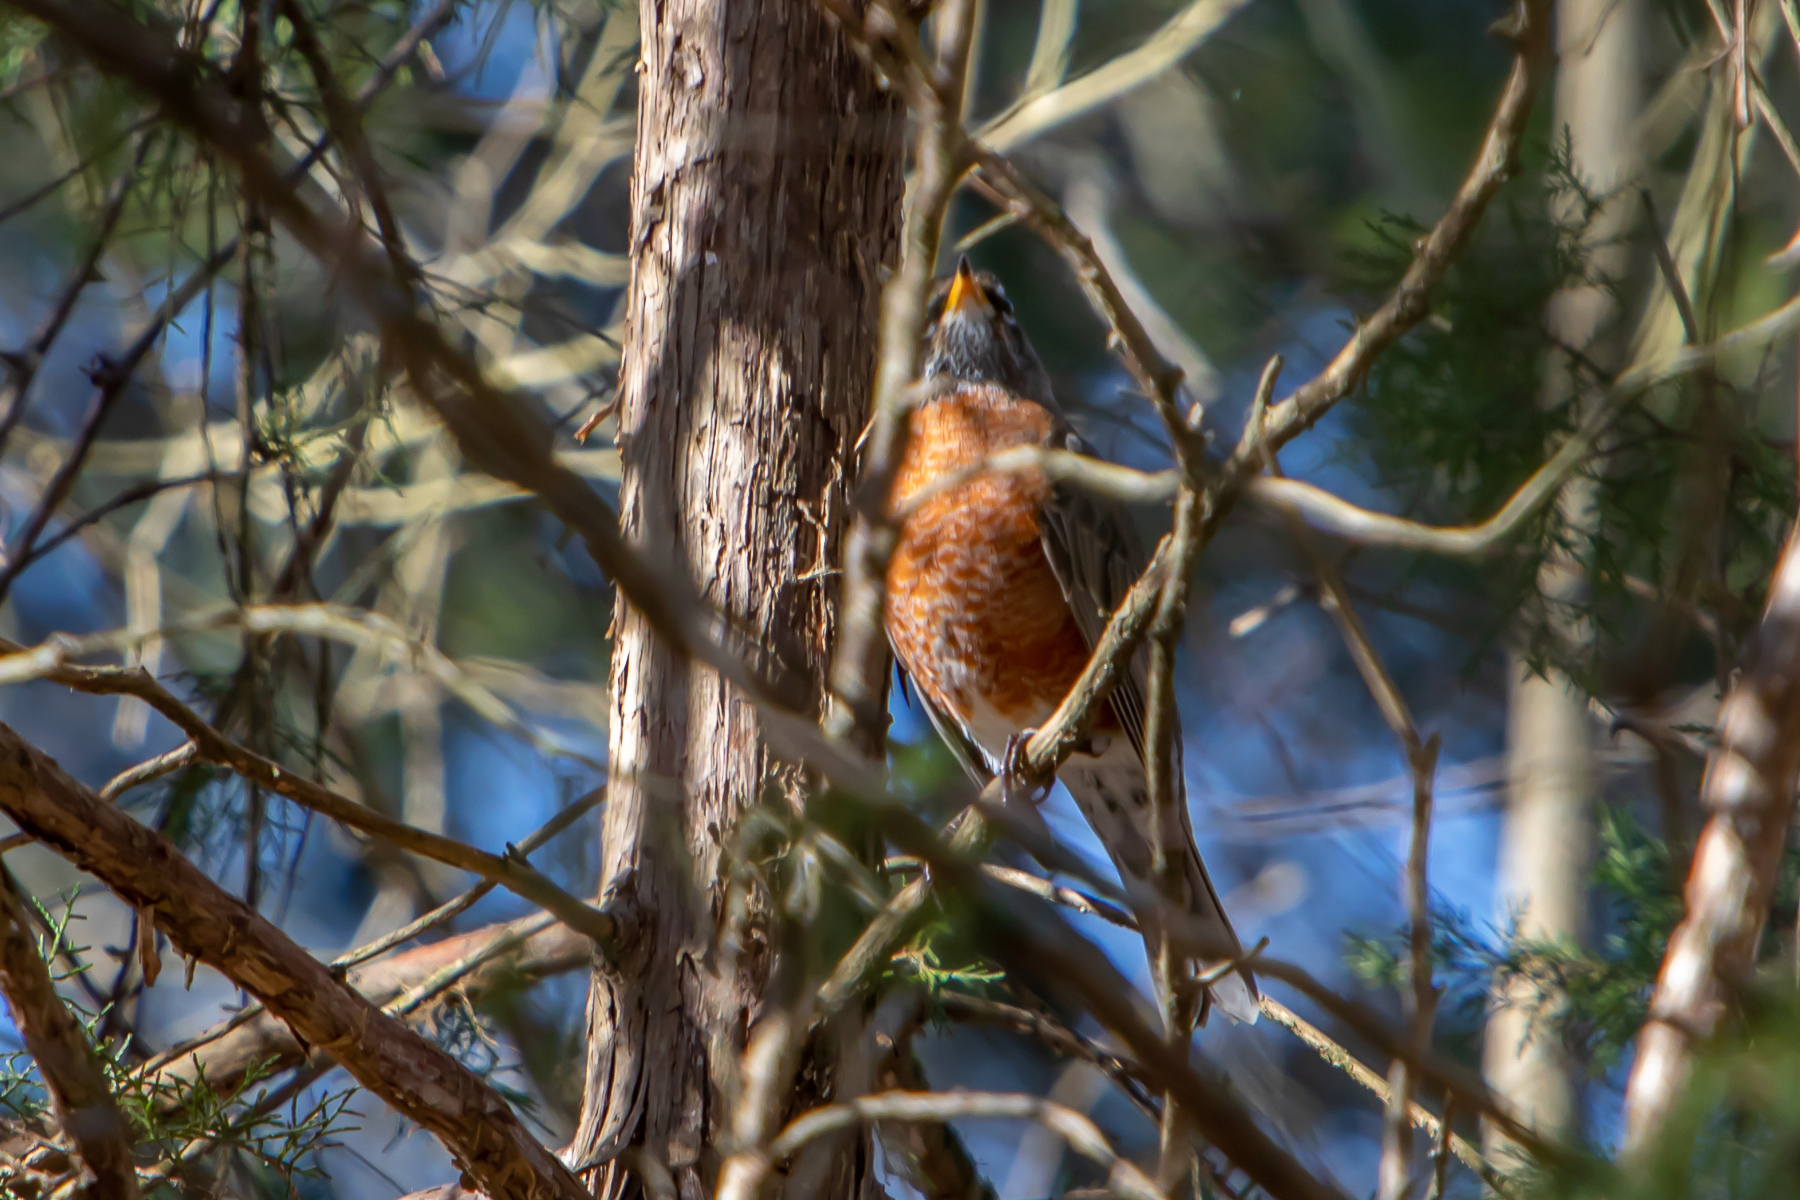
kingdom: Animalia
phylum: Chordata
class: Aves
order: Passeriformes
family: Turdidae
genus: Turdus
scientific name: Turdus migratorius
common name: American robin
